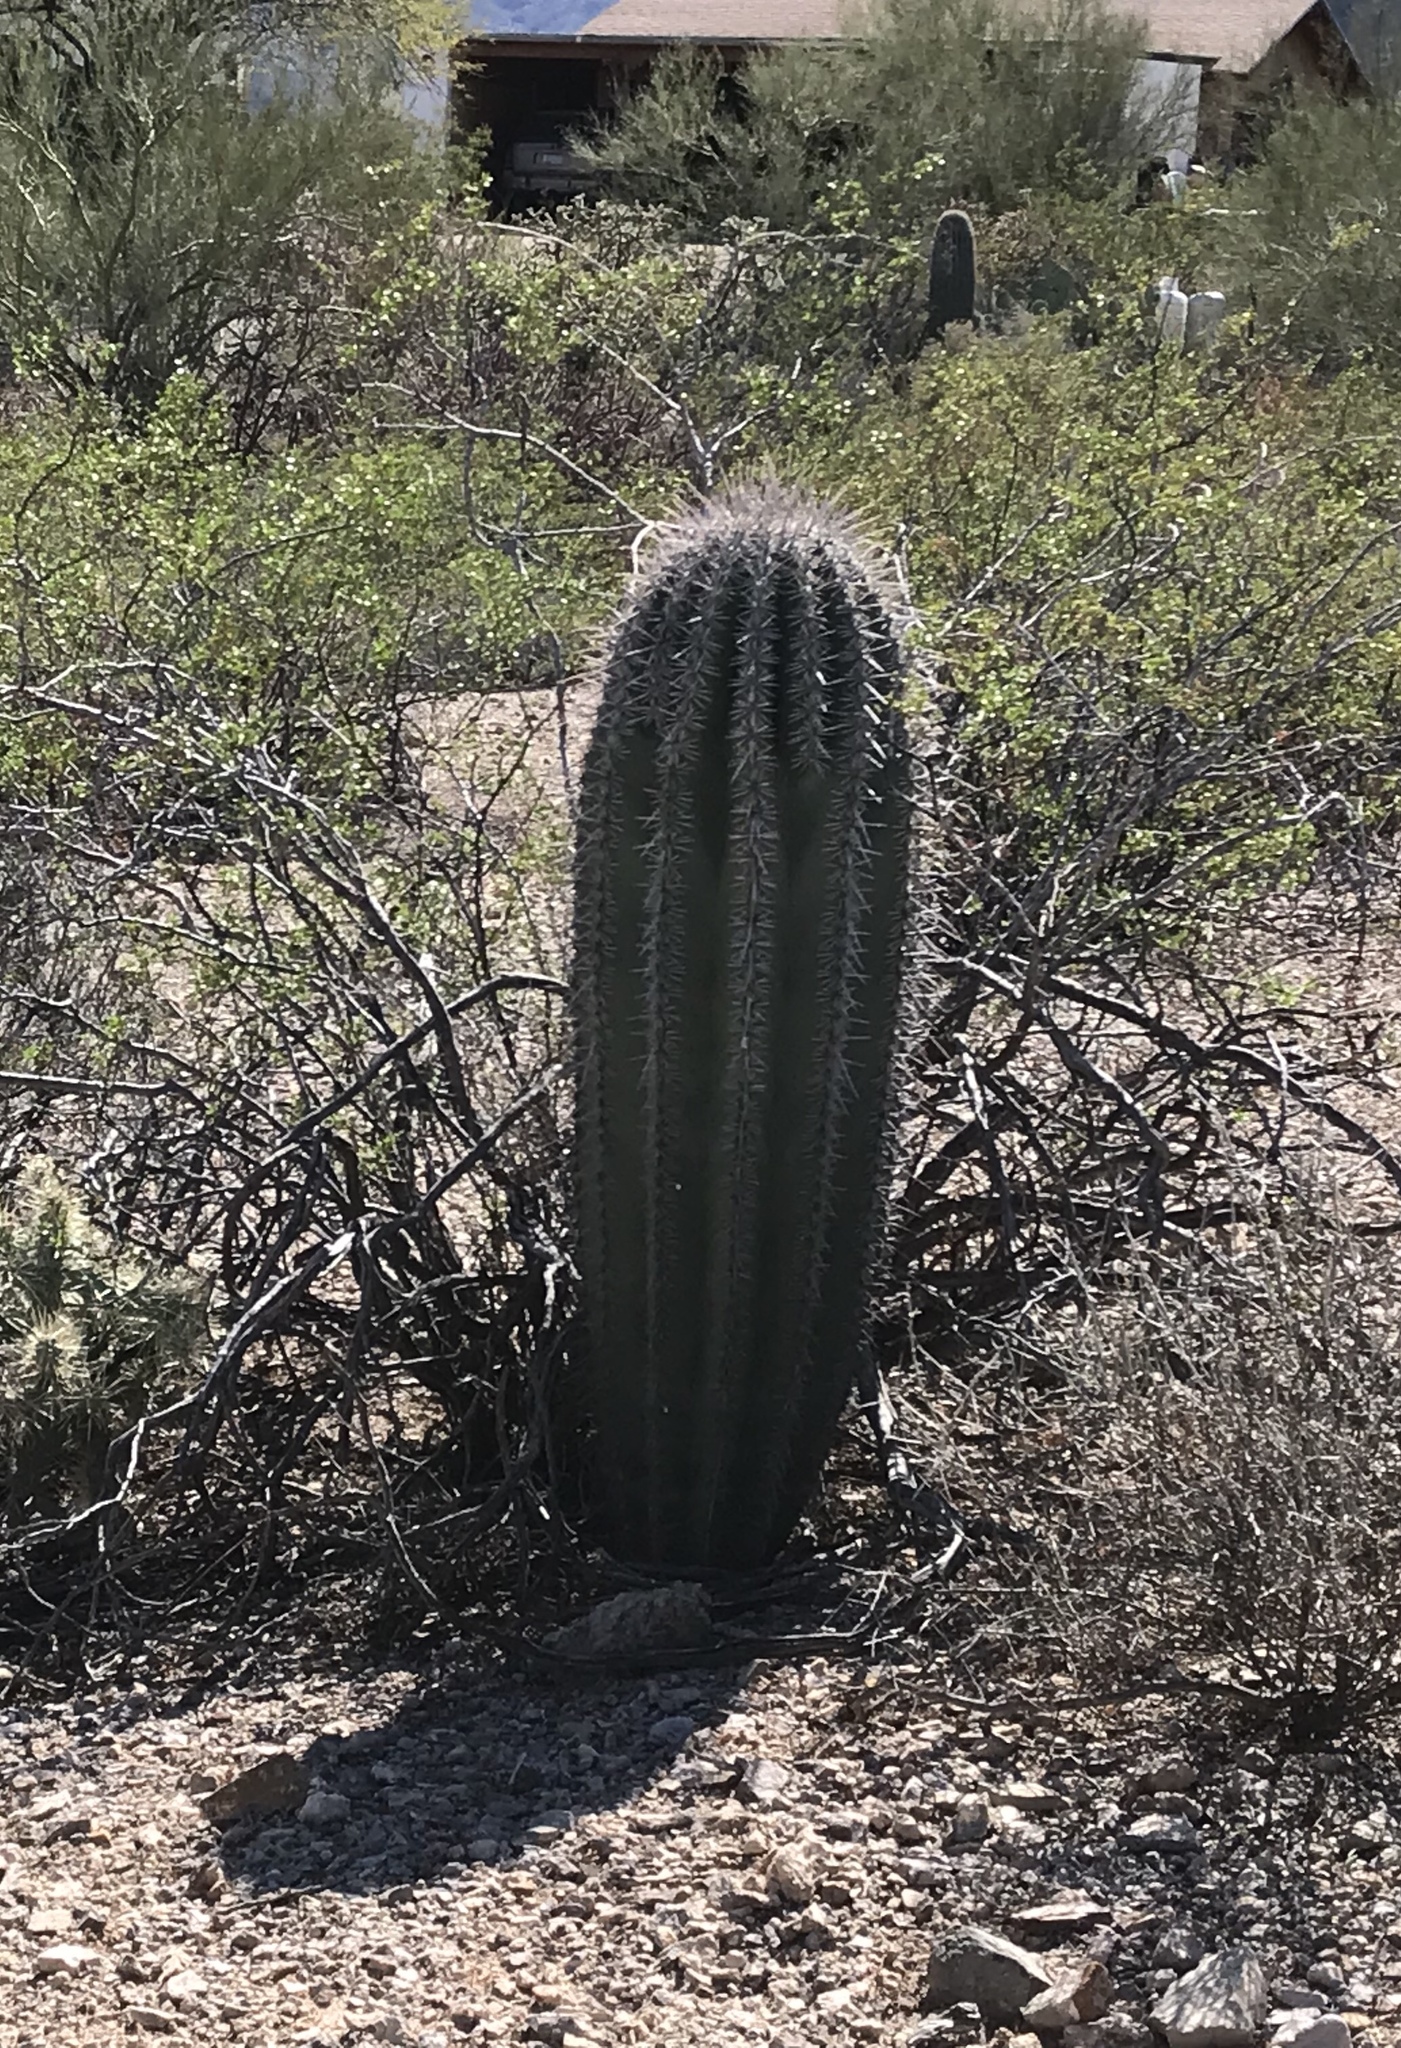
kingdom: Plantae
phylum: Tracheophyta
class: Magnoliopsida
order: Caryophyllales
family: Cactaceae
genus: Carnegiea
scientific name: Carnegiea gigantea
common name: Saguaro
